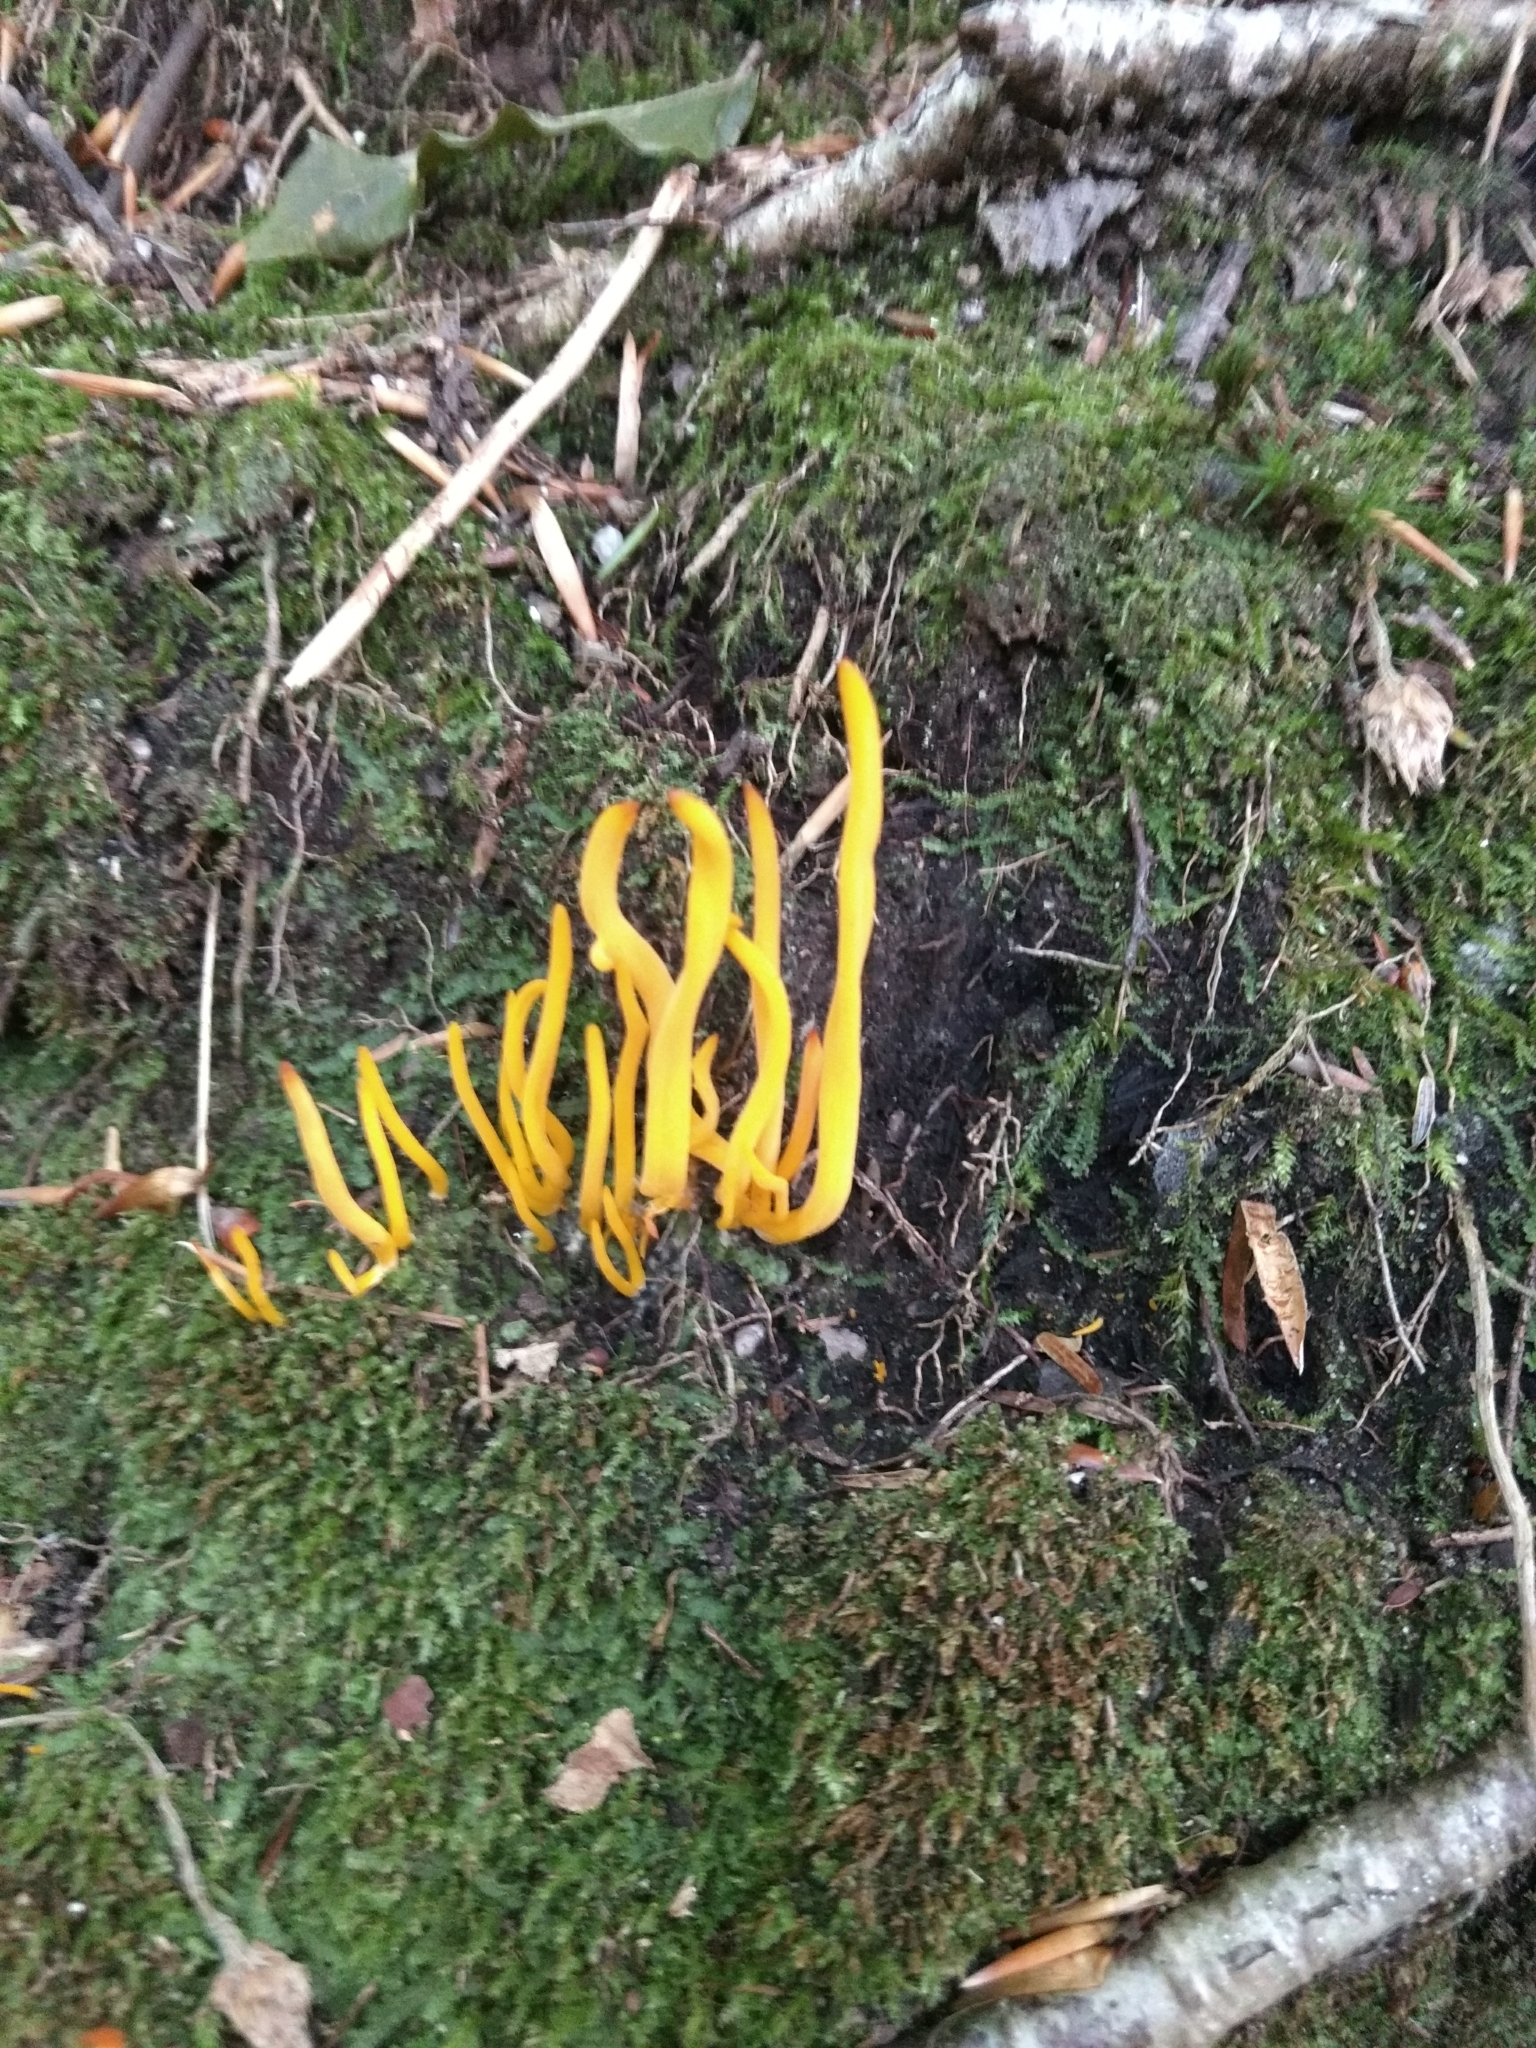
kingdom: Fungi
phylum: Basidiomycota
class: Agaricomycetes
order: Agaricales
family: Clavariaceae
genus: Clavulinopsis
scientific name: Clavulinopsis fusiformis
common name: Golden spindles
